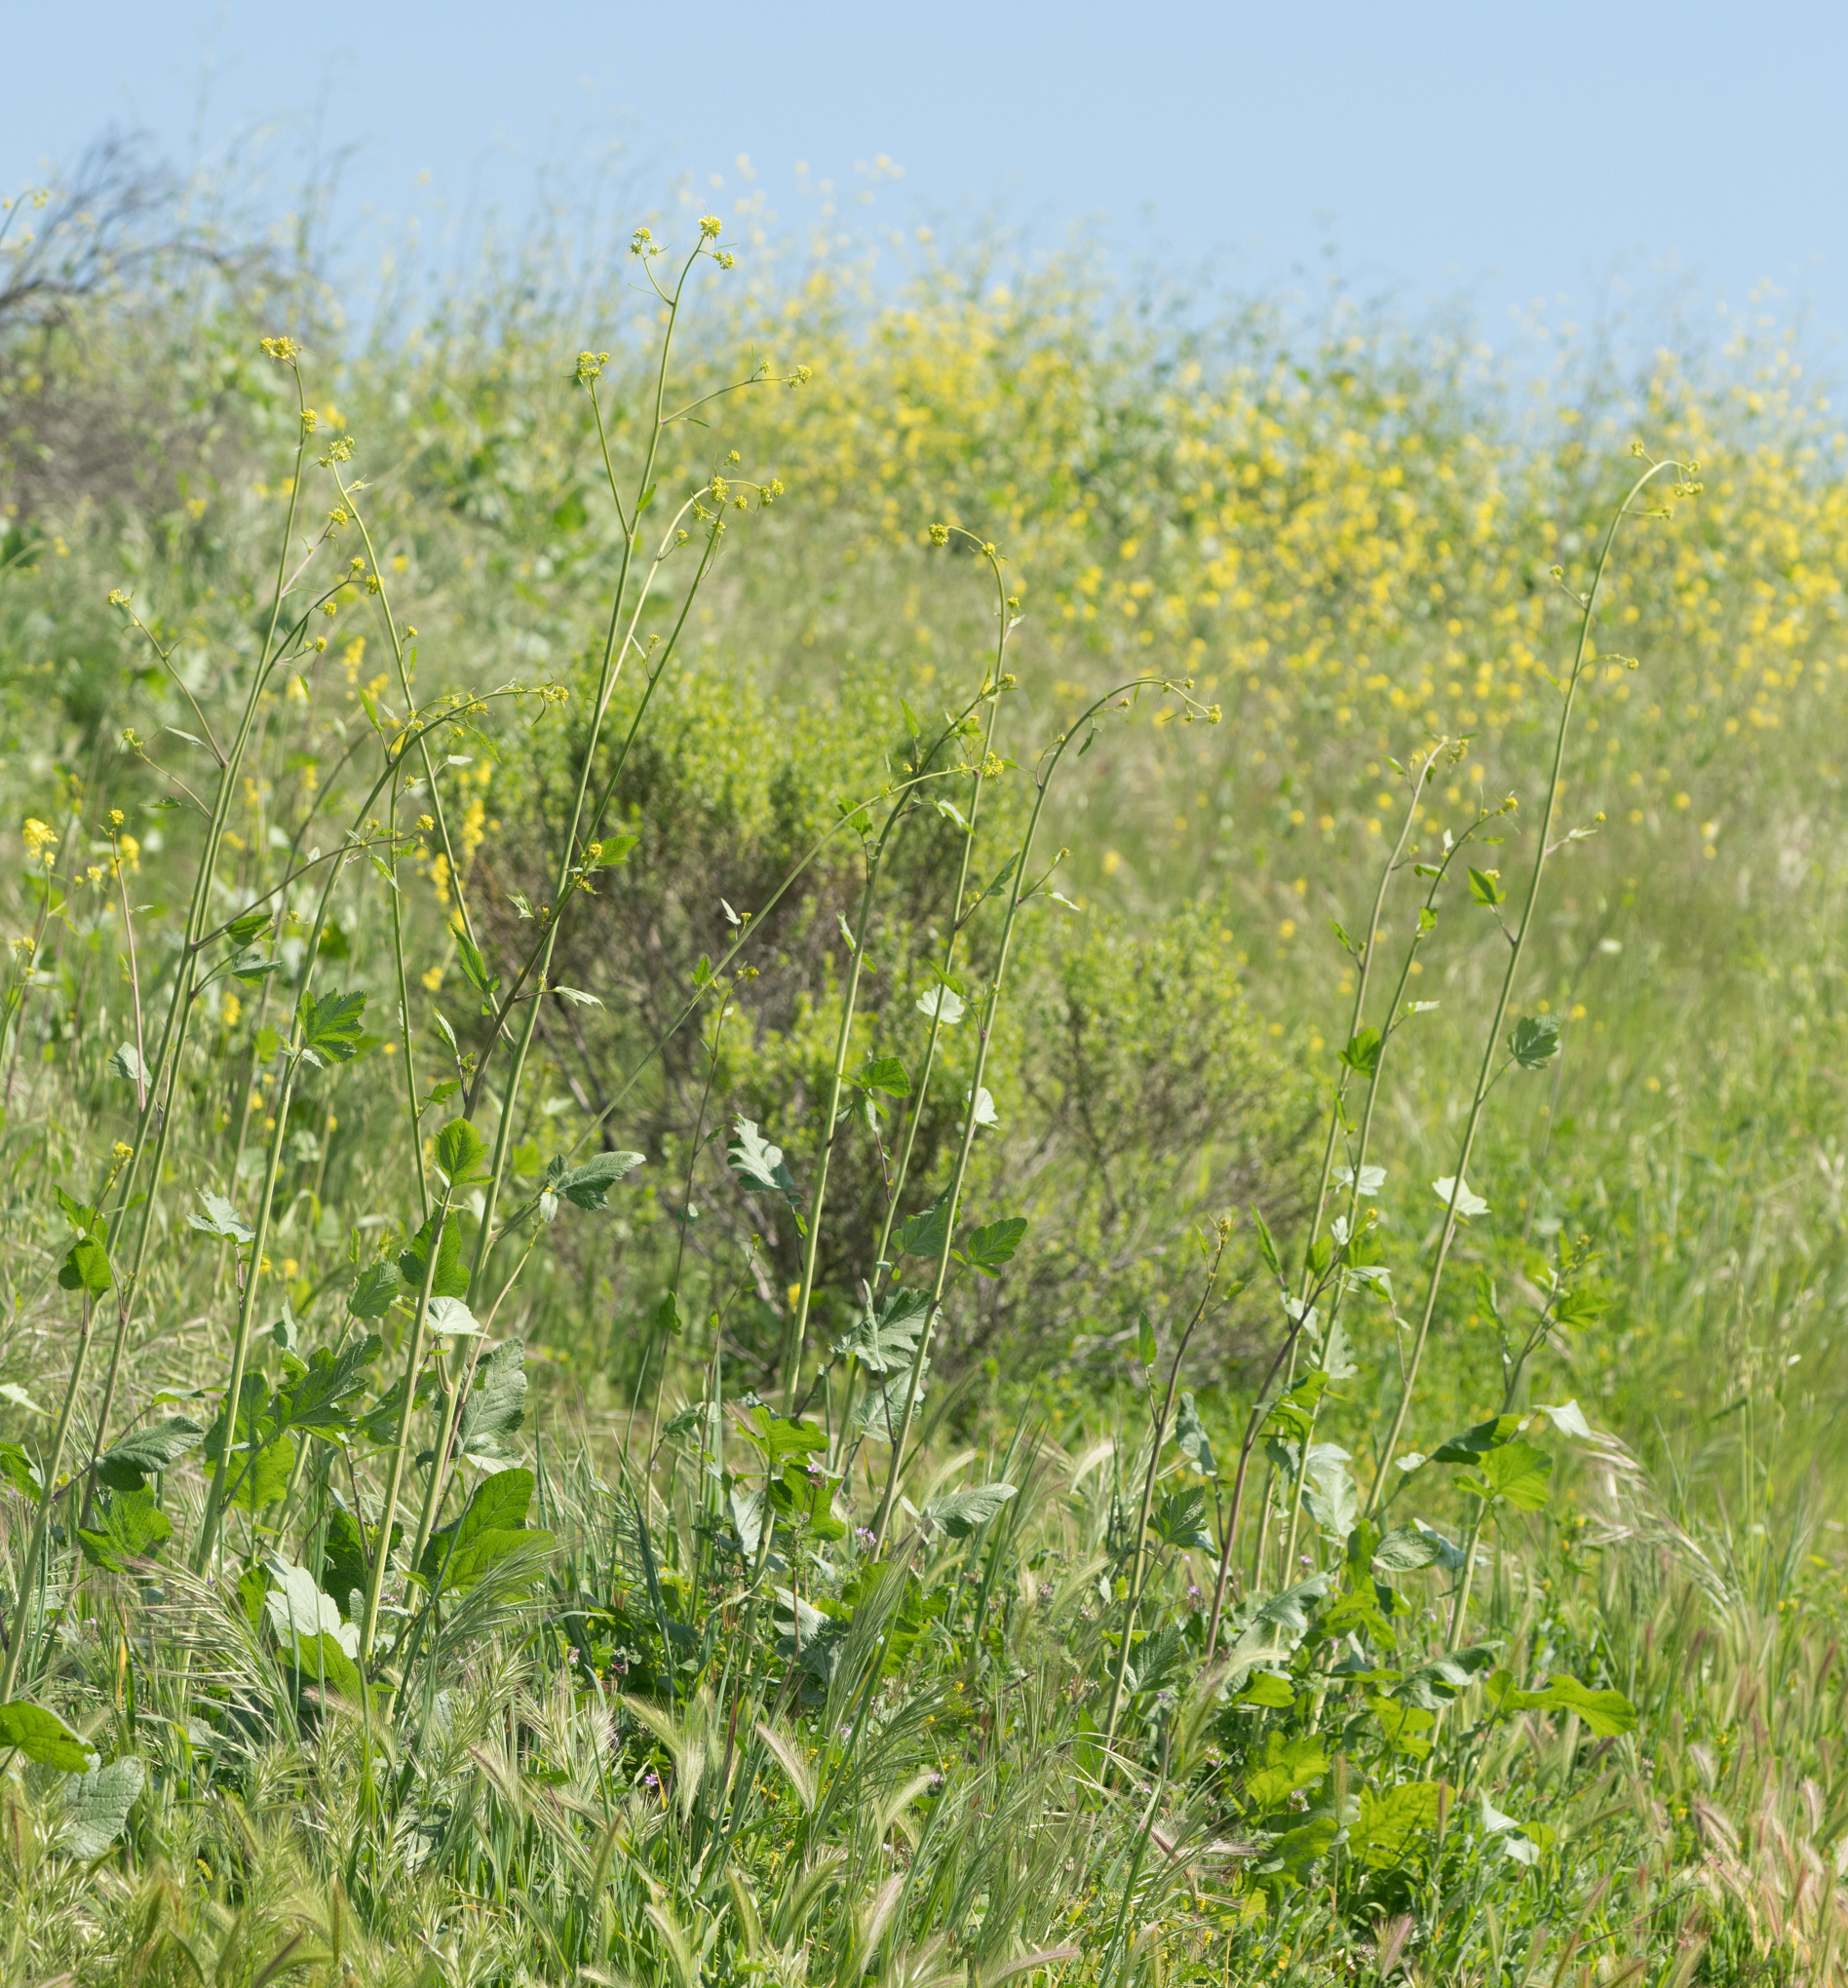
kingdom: Plantae
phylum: Tracheophyta
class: Magnoliopsida
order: Brassicales
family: Brassicaceae
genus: Brassica
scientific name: Brassica nigra
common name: Black mustard
